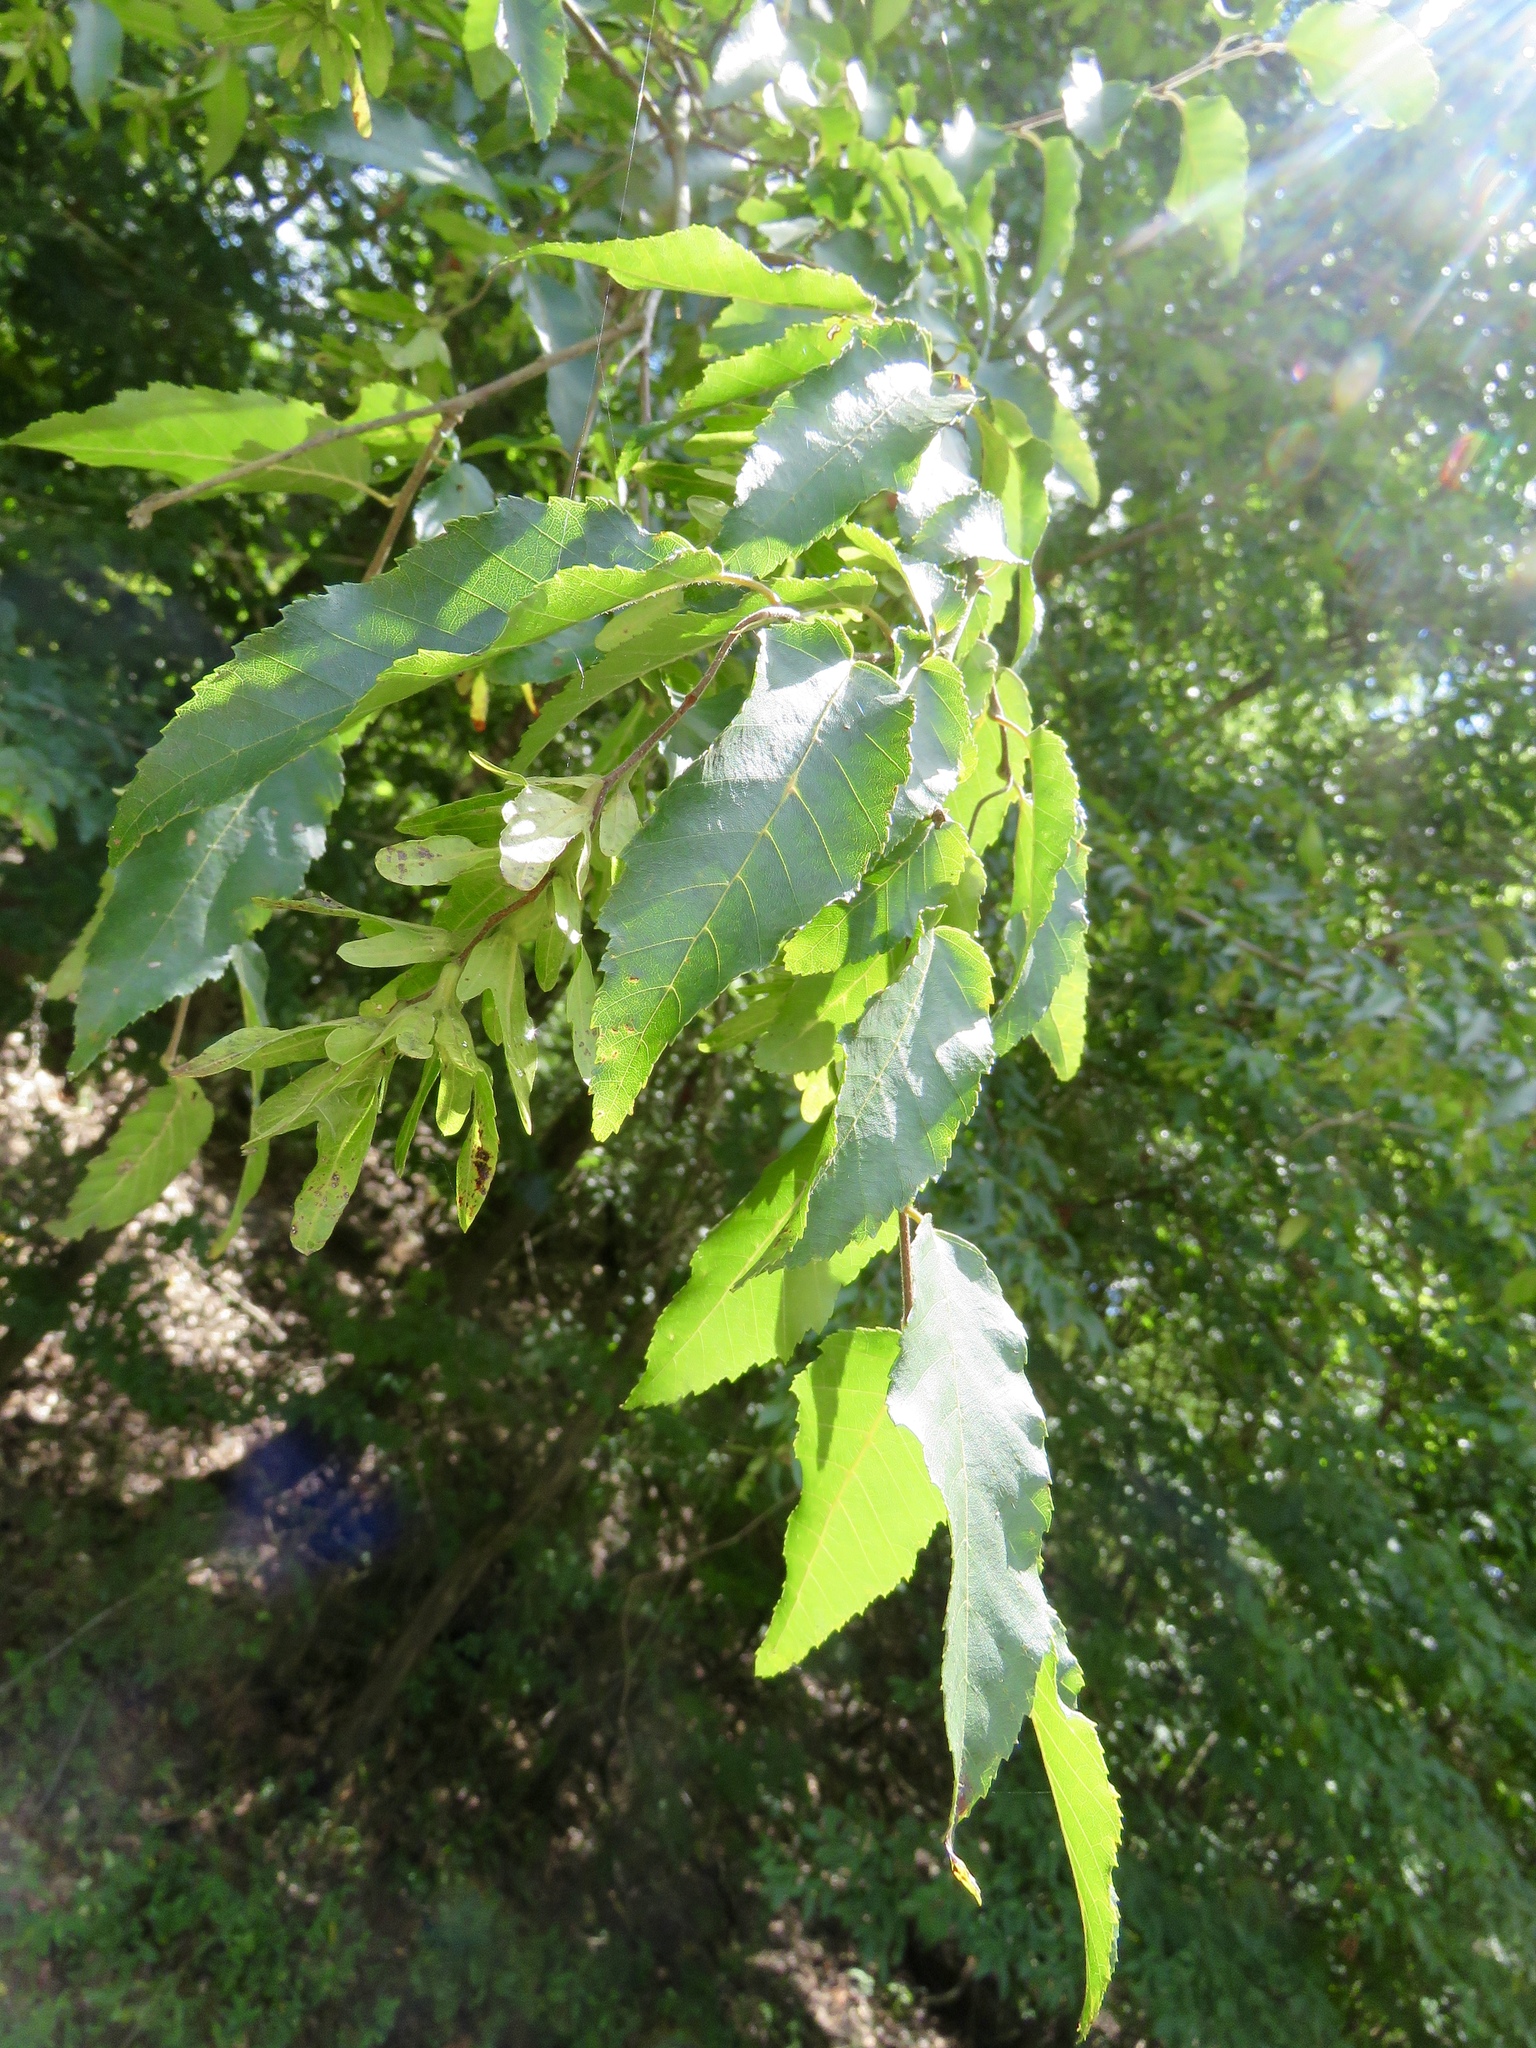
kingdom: Plantae
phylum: Tracheophyta
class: Magnoliopsida
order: Fagales
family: Betulaceae
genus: Carpinus
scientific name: Carpinus caroliniana
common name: American hornbeam
